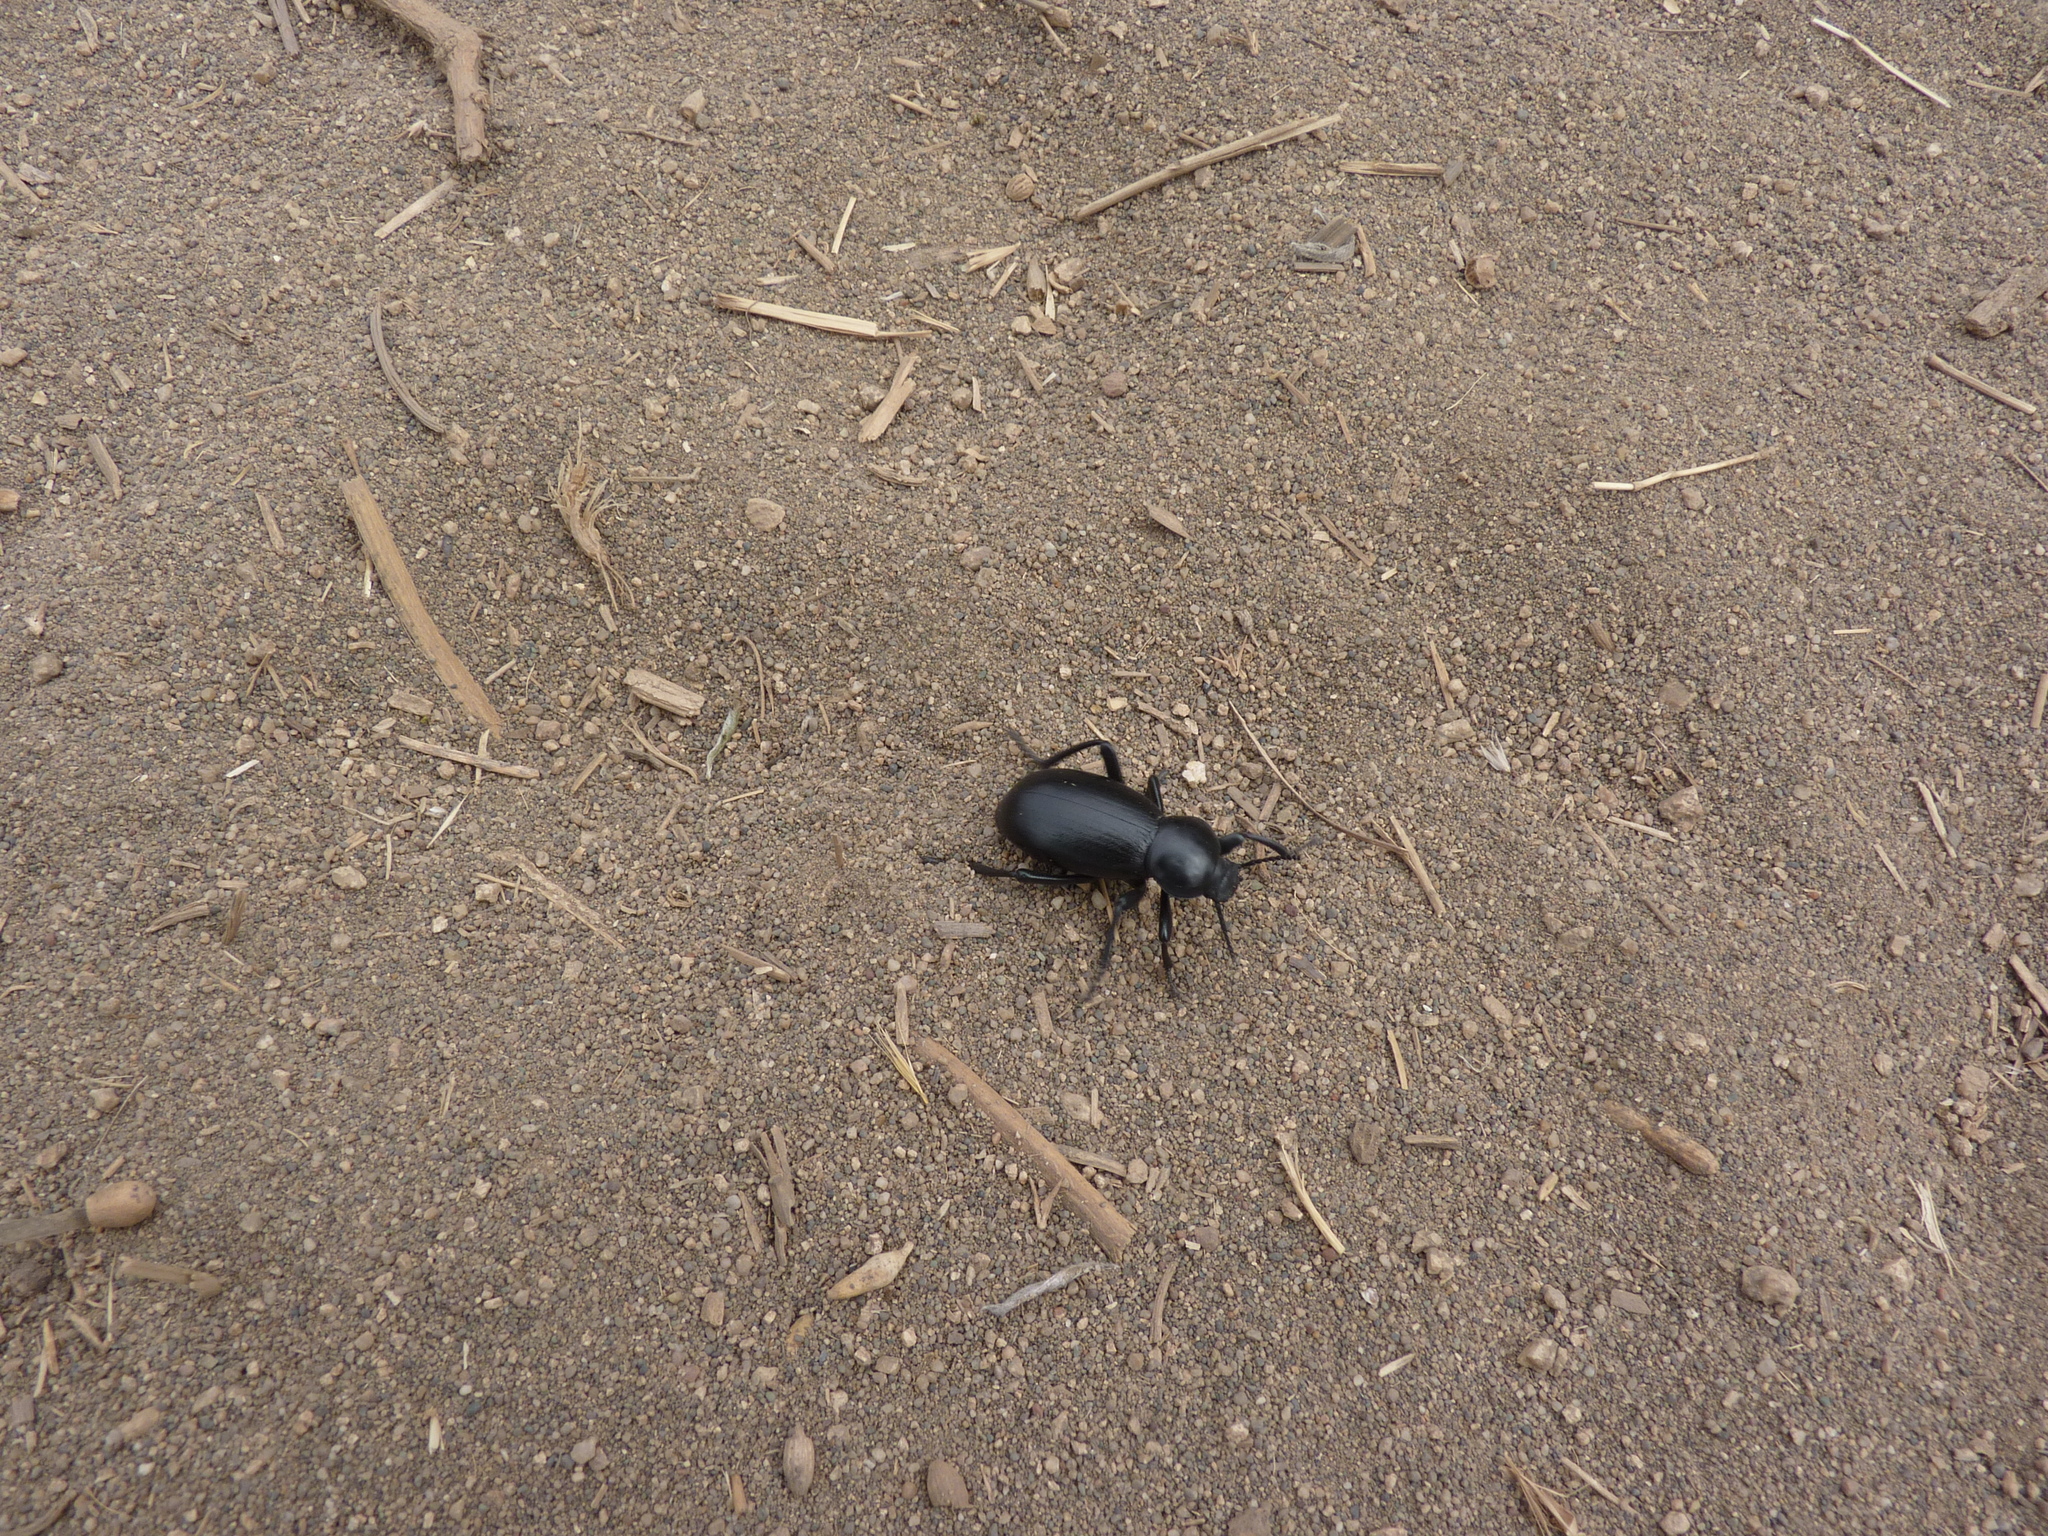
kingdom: Animalia
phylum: Arthropoda
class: Insecta
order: Coleoptera
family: Tenebrionidae
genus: Eleodes
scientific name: Eleodes grandicollis
